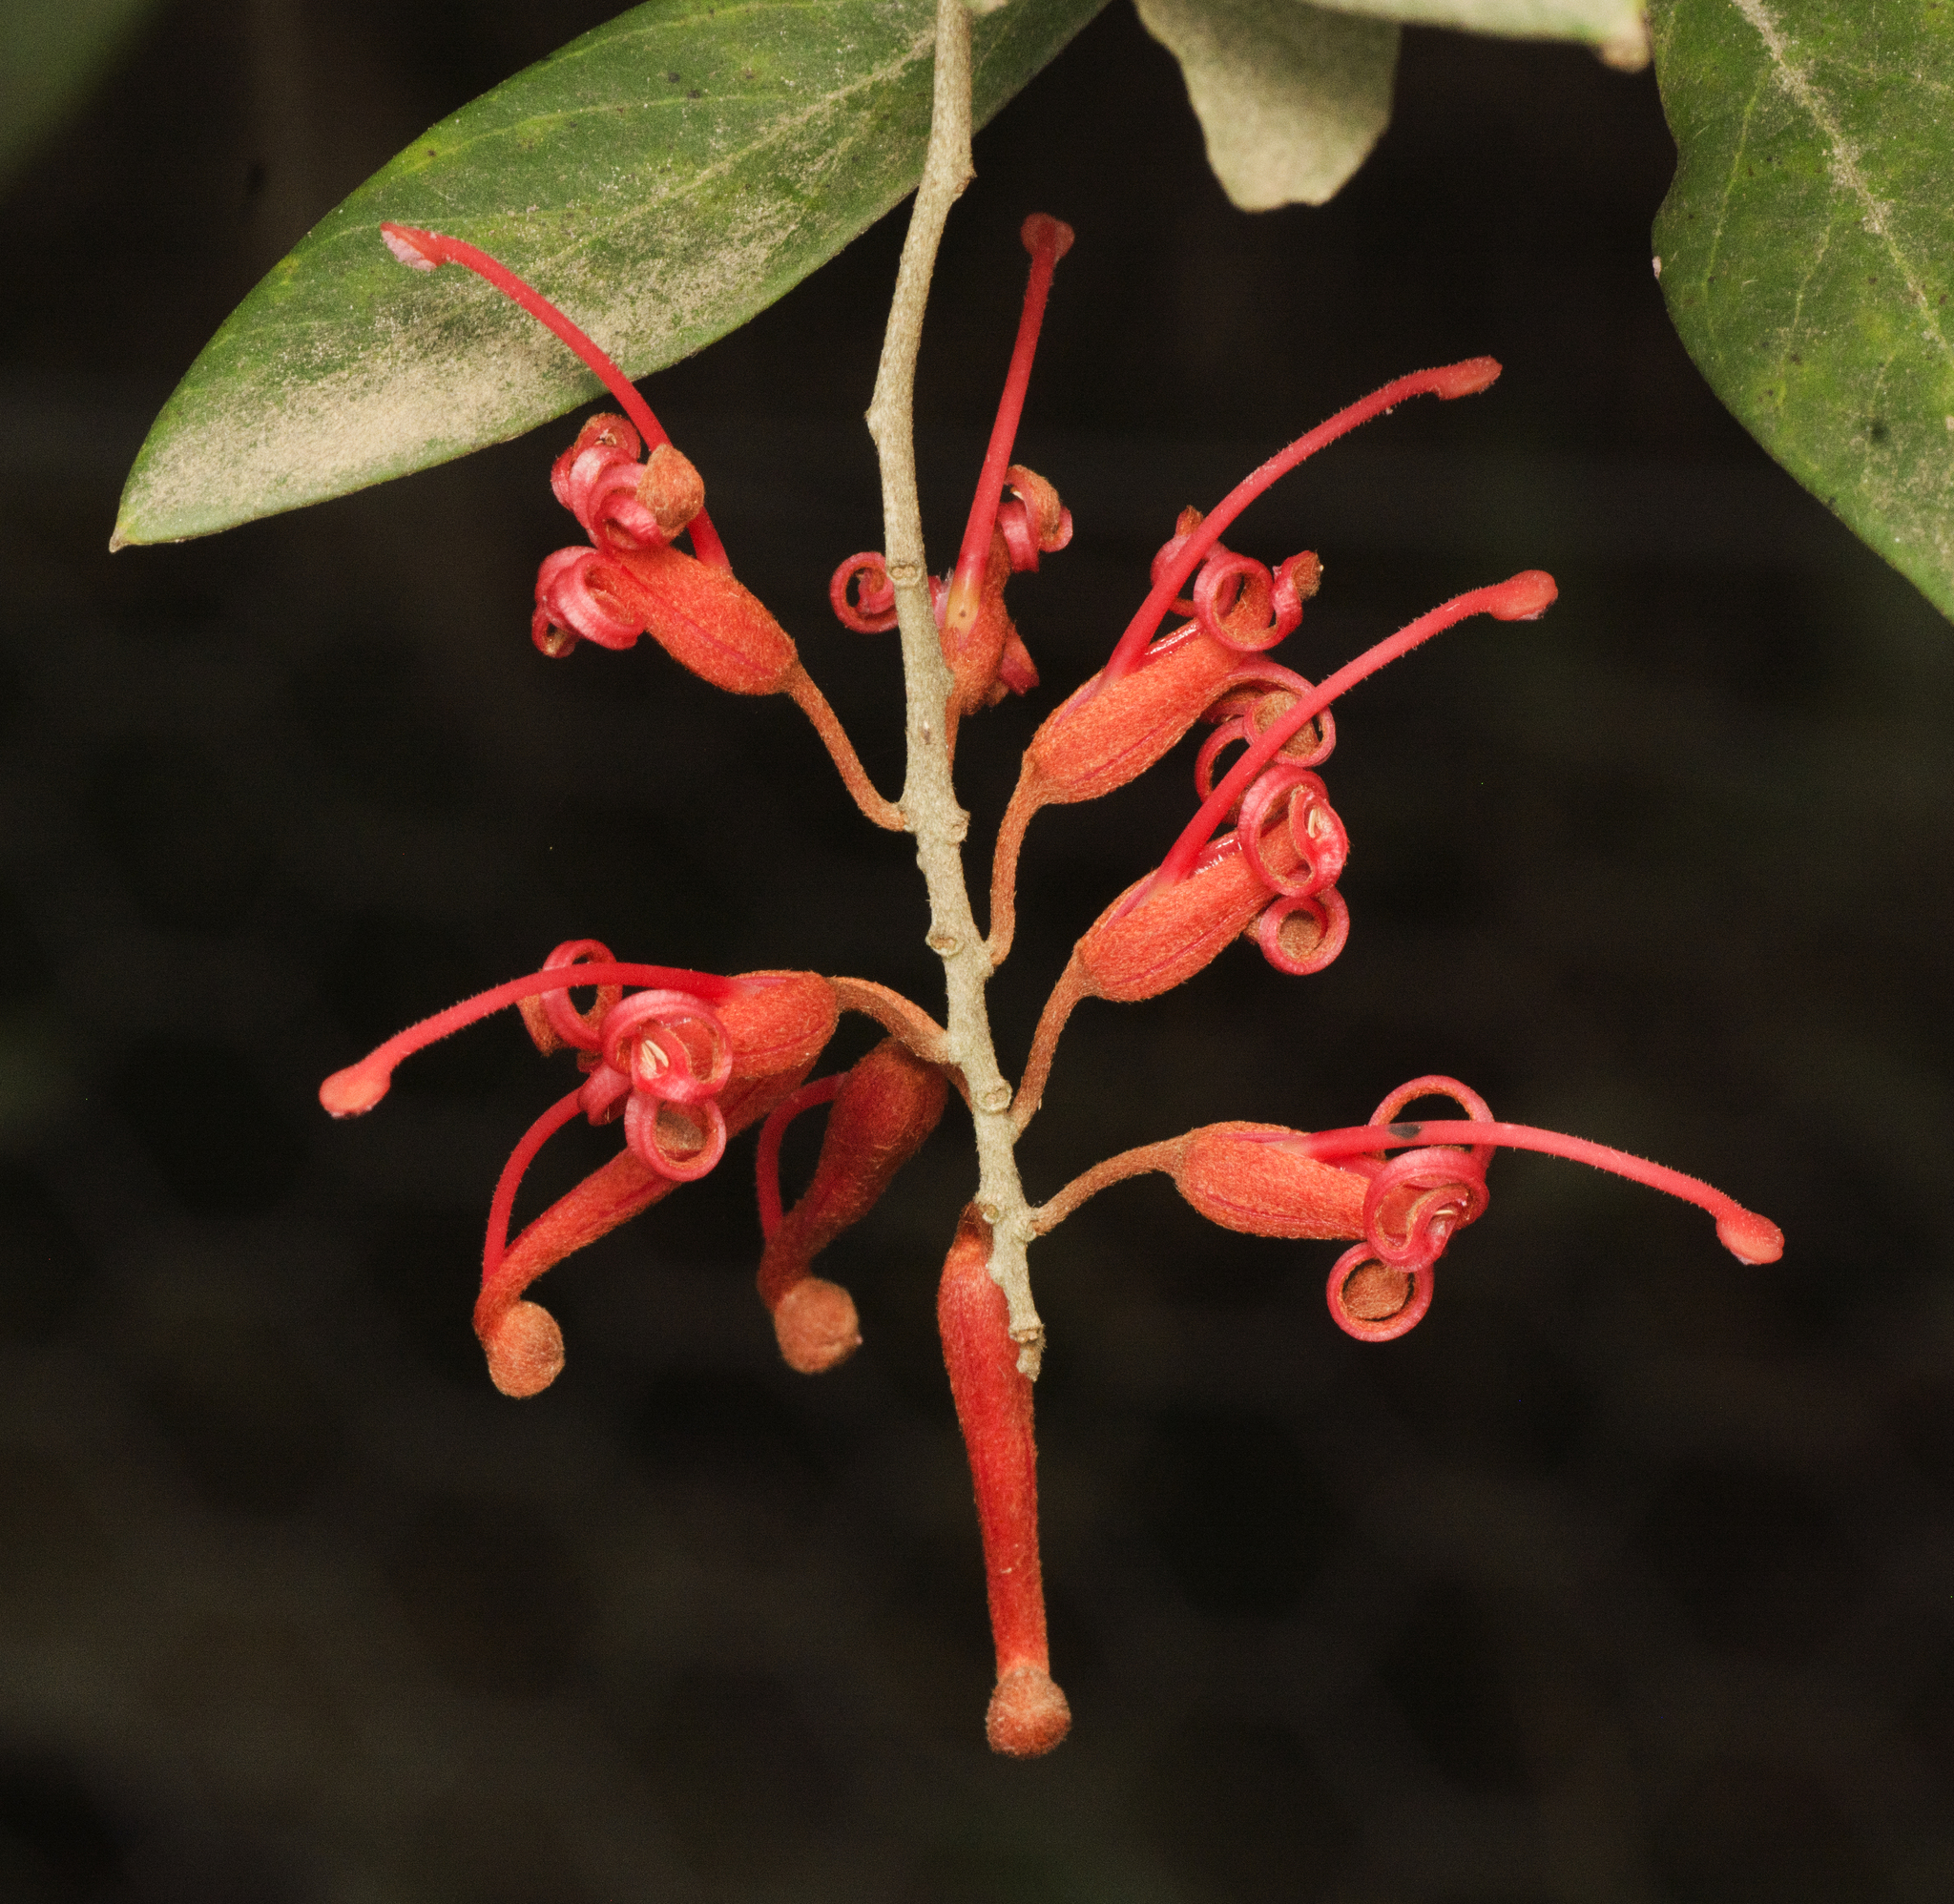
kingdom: Plantae
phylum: Tracheophyta
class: Magnoliopsida
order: Proteales
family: Proteaceae
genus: Grevillea
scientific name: Grevillea victoriae
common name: Royal grevillea
